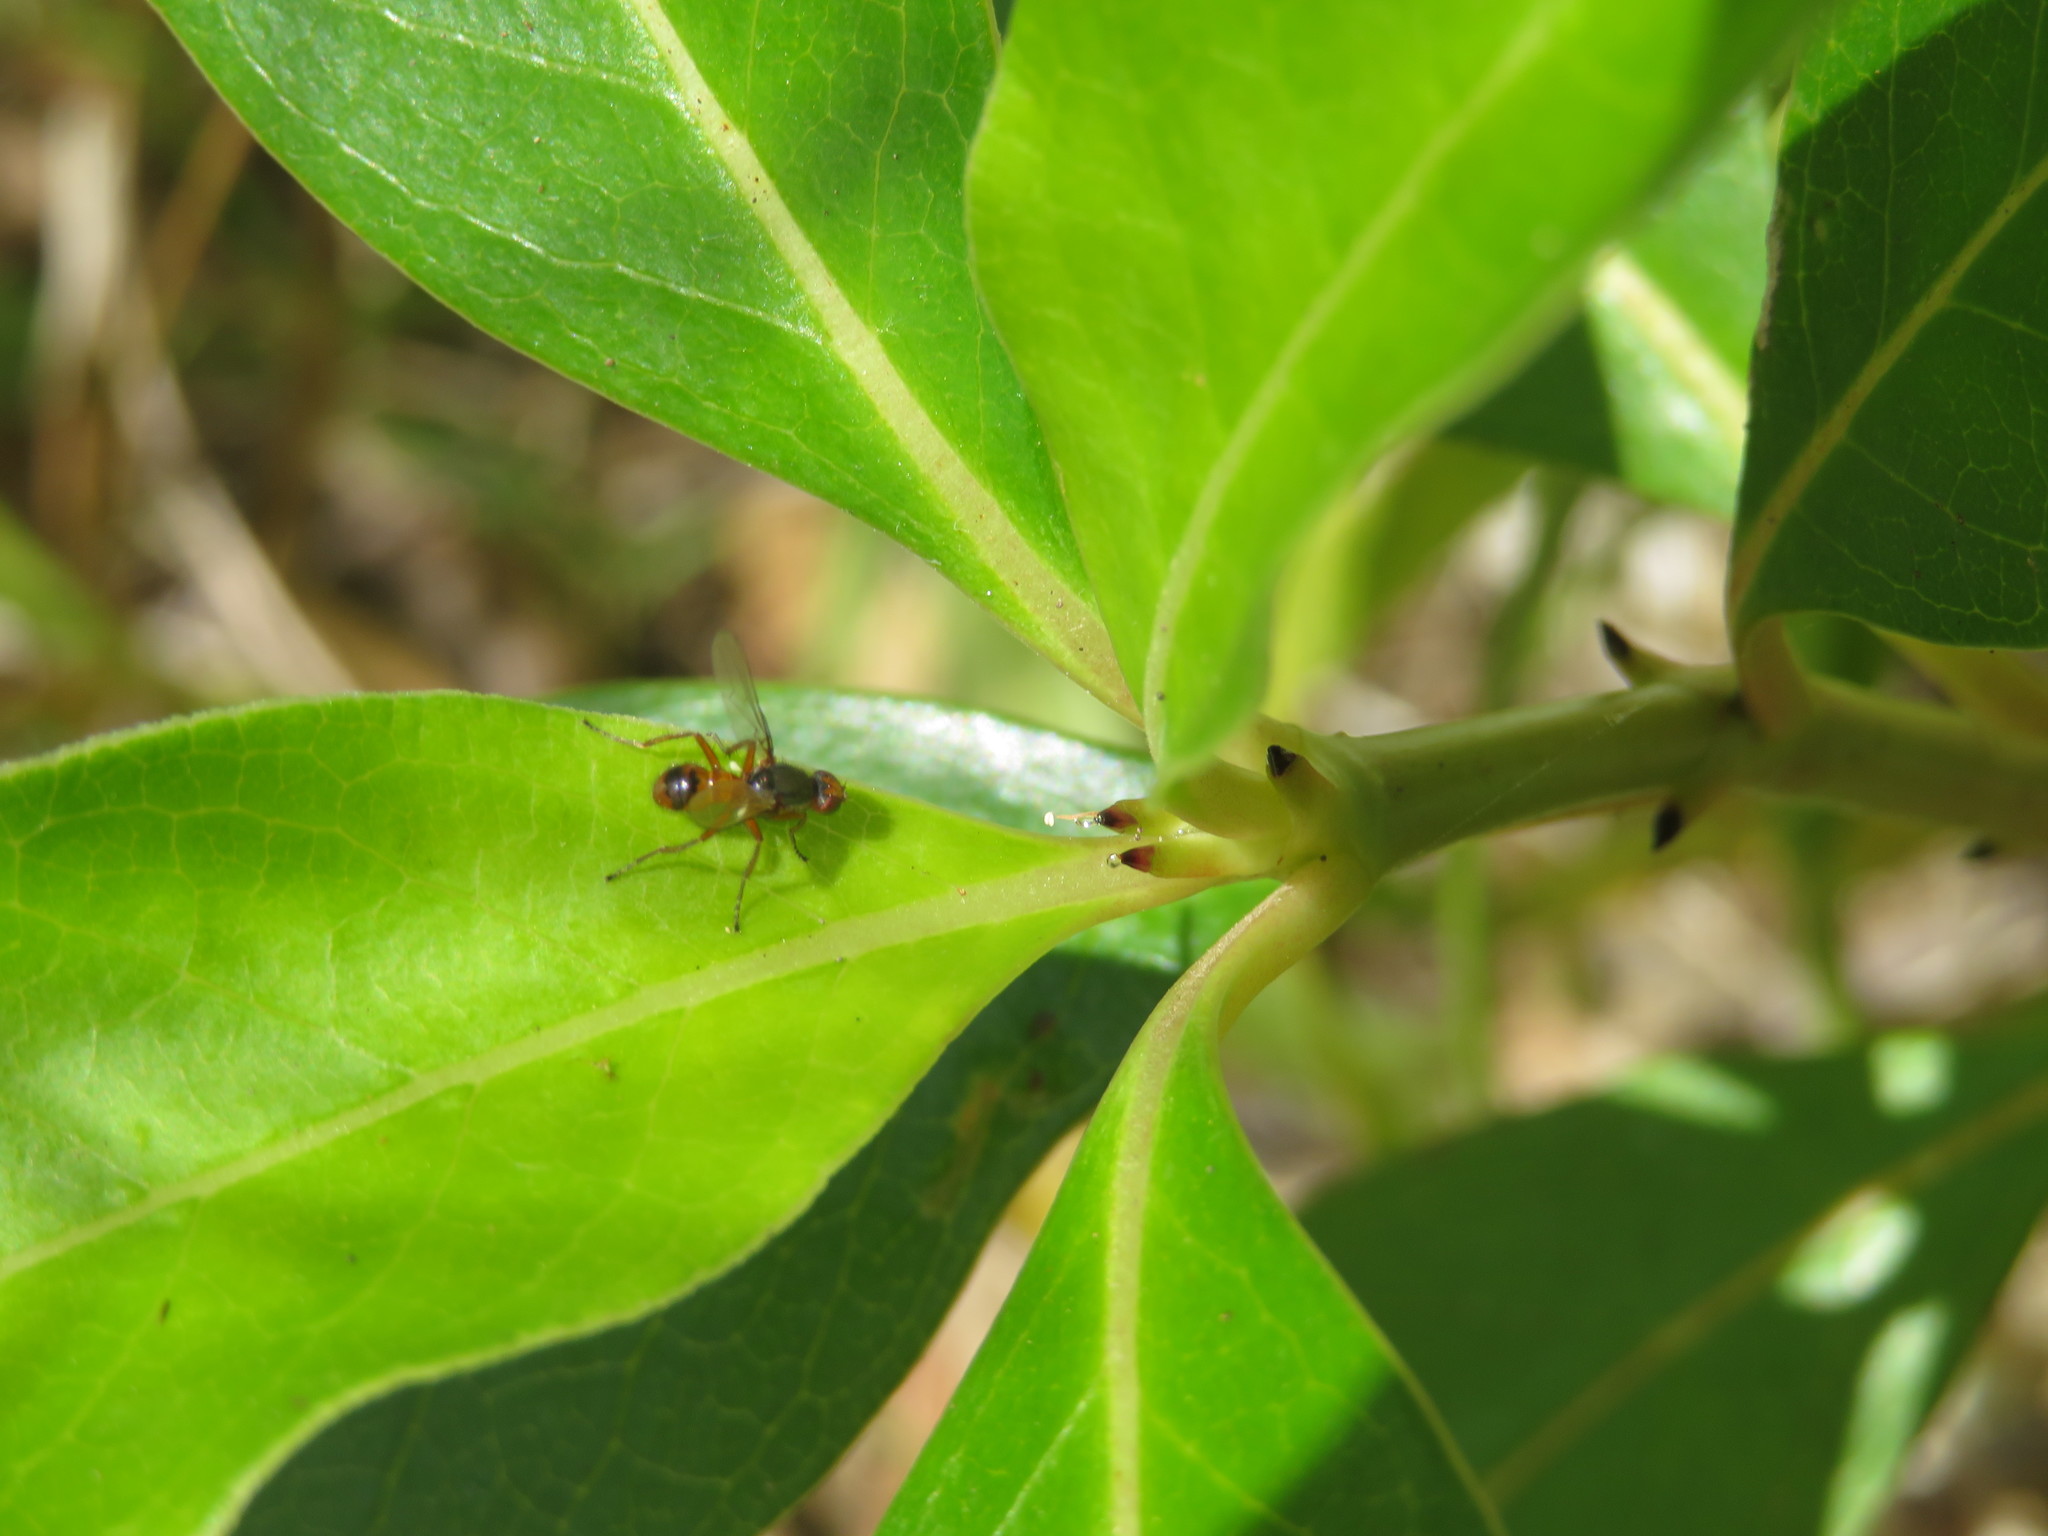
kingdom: Animalia
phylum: Arthropoda
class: Insecta
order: Diptera
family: Sepsidae
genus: Lasionemopoda
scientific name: Lasionemopoda hirsuta
